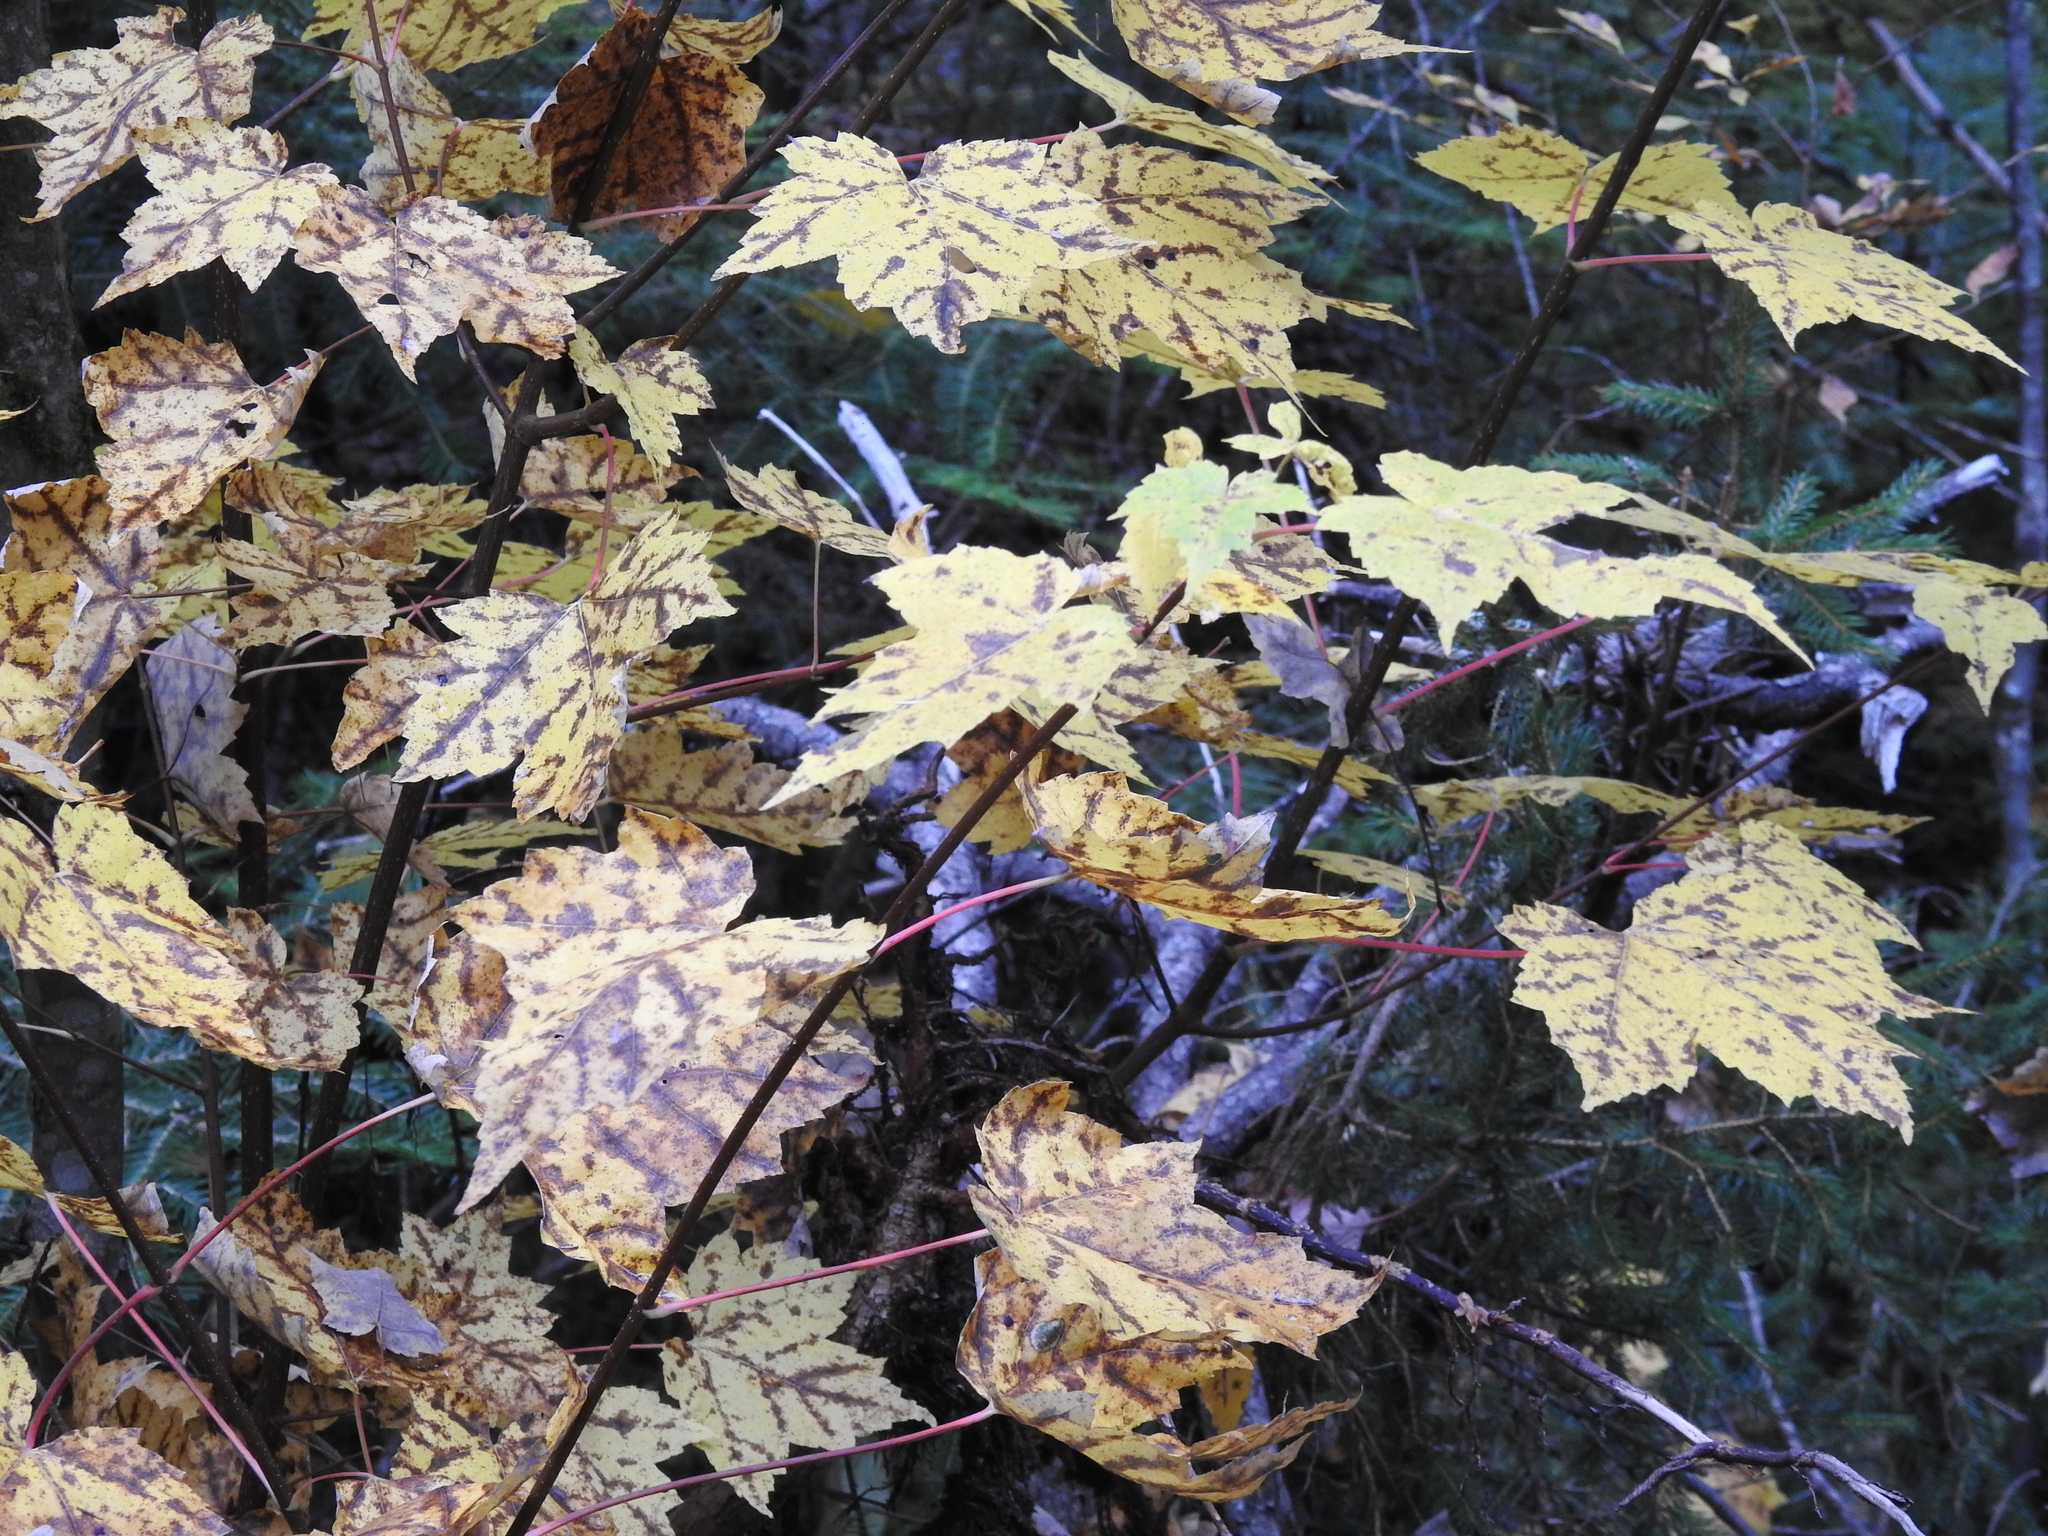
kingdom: Plantae
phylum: Tracheophyta
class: Magnoliopsida
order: Sapindales
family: Sapindaceae
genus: Acer
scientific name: Acer rubrum
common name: Red maple
